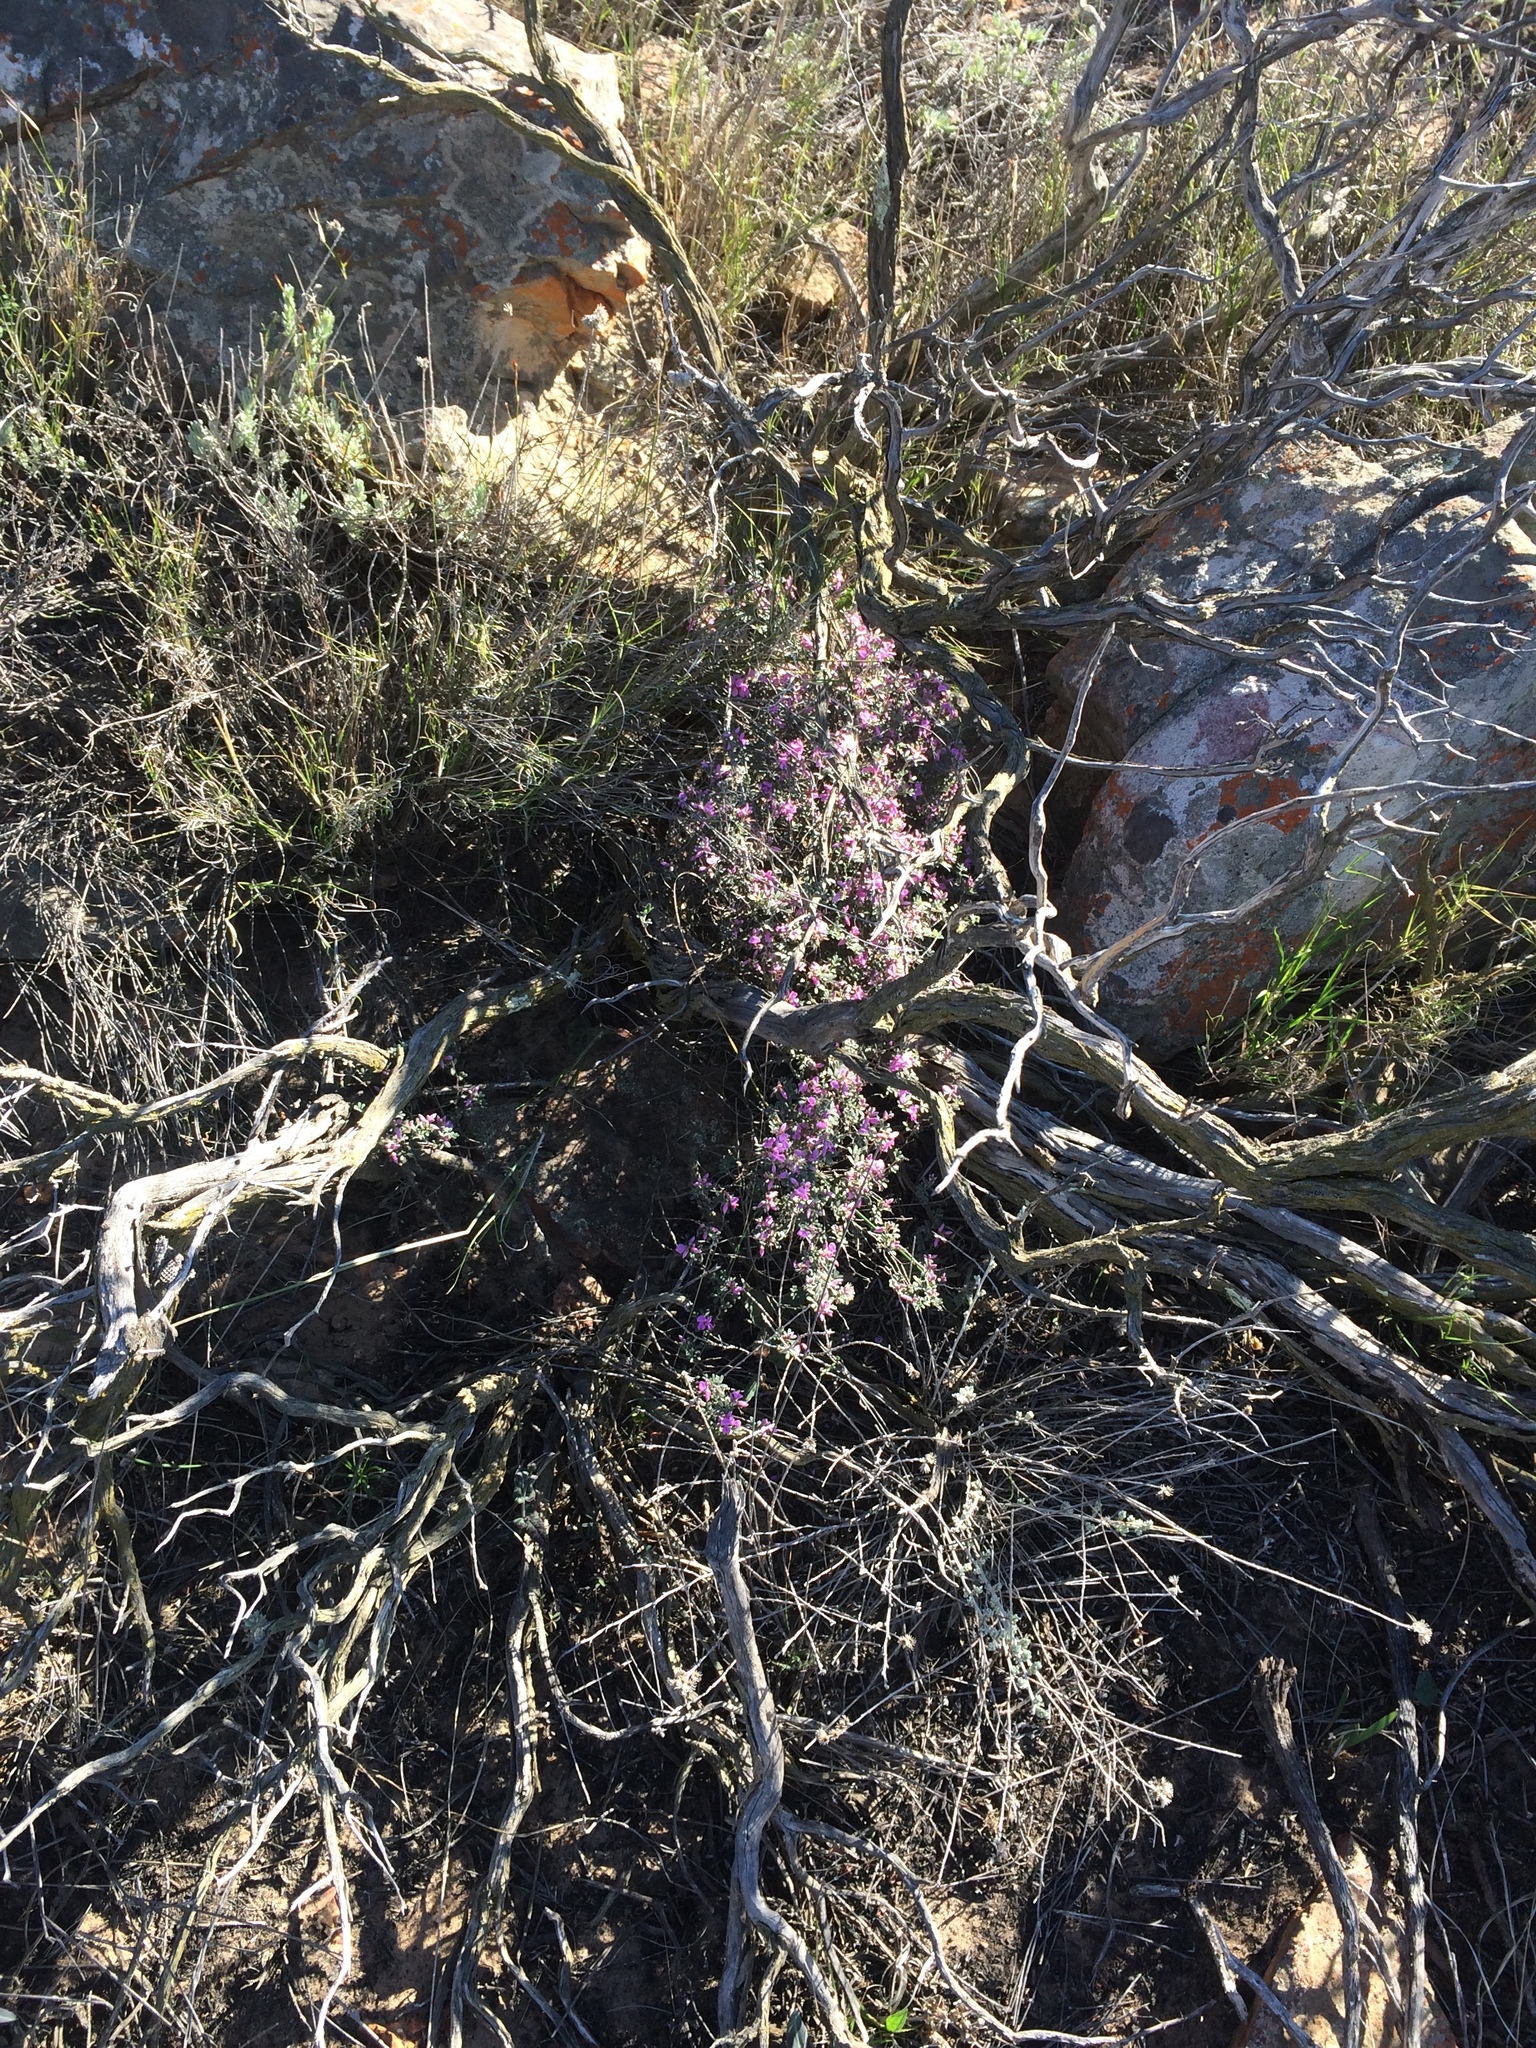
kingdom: Plantae
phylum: Tracheophyta
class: Magnoliopsida
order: Fabales
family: Fabaceae
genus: Indigofera
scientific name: Indigofera pilgeriana
